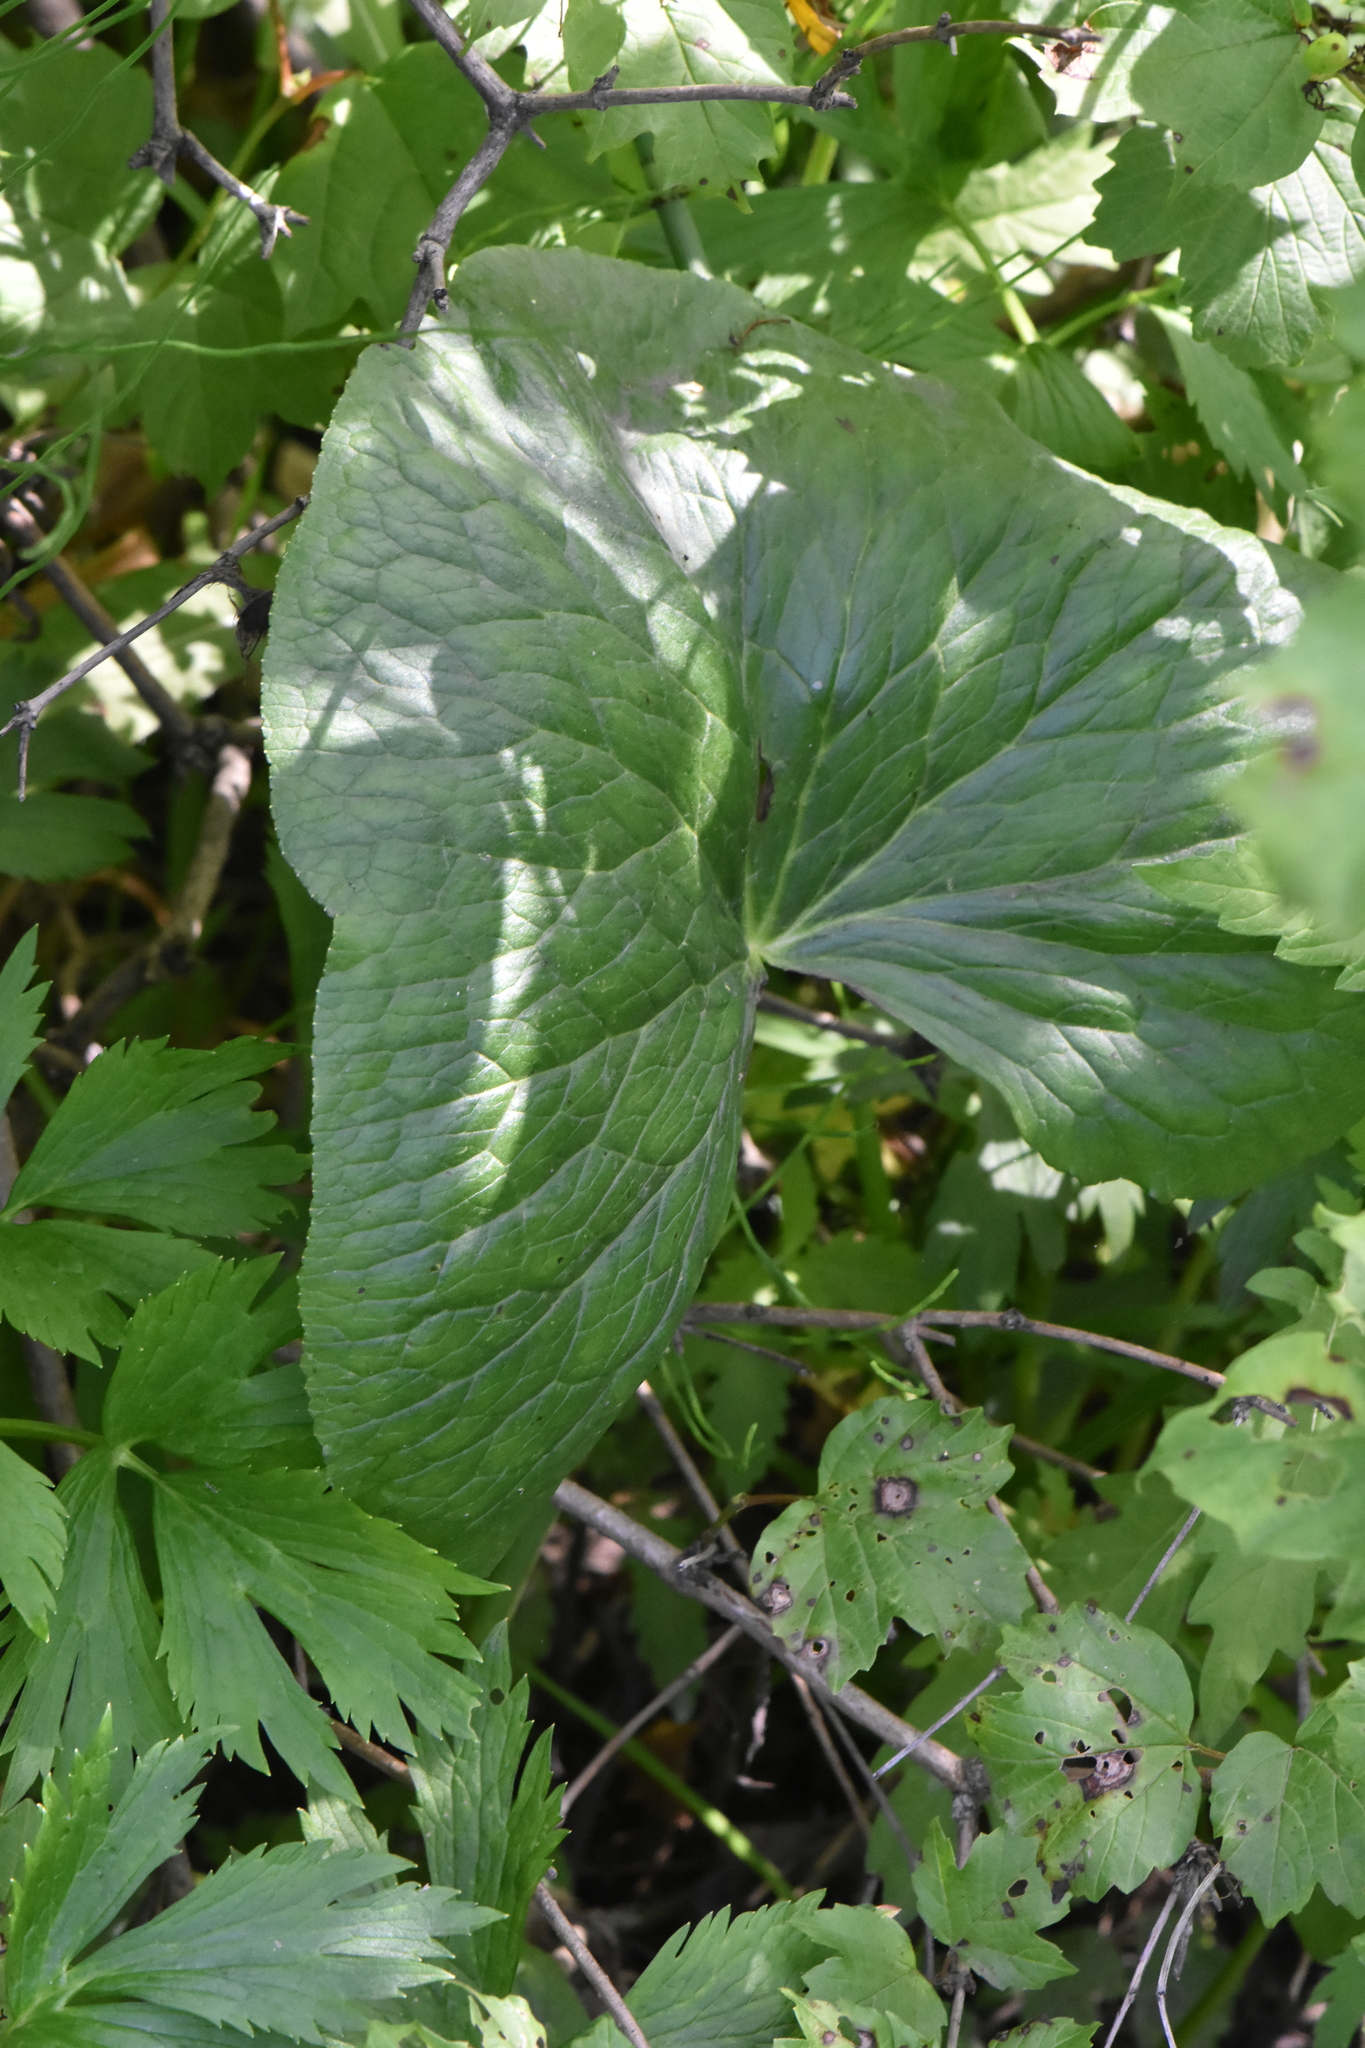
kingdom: Plantae
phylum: Tracheophyta
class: Magnoliopsida
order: Ranunculales
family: Ranunculaceae
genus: Caltha
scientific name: Caltha palustris
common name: Marsh marigold
